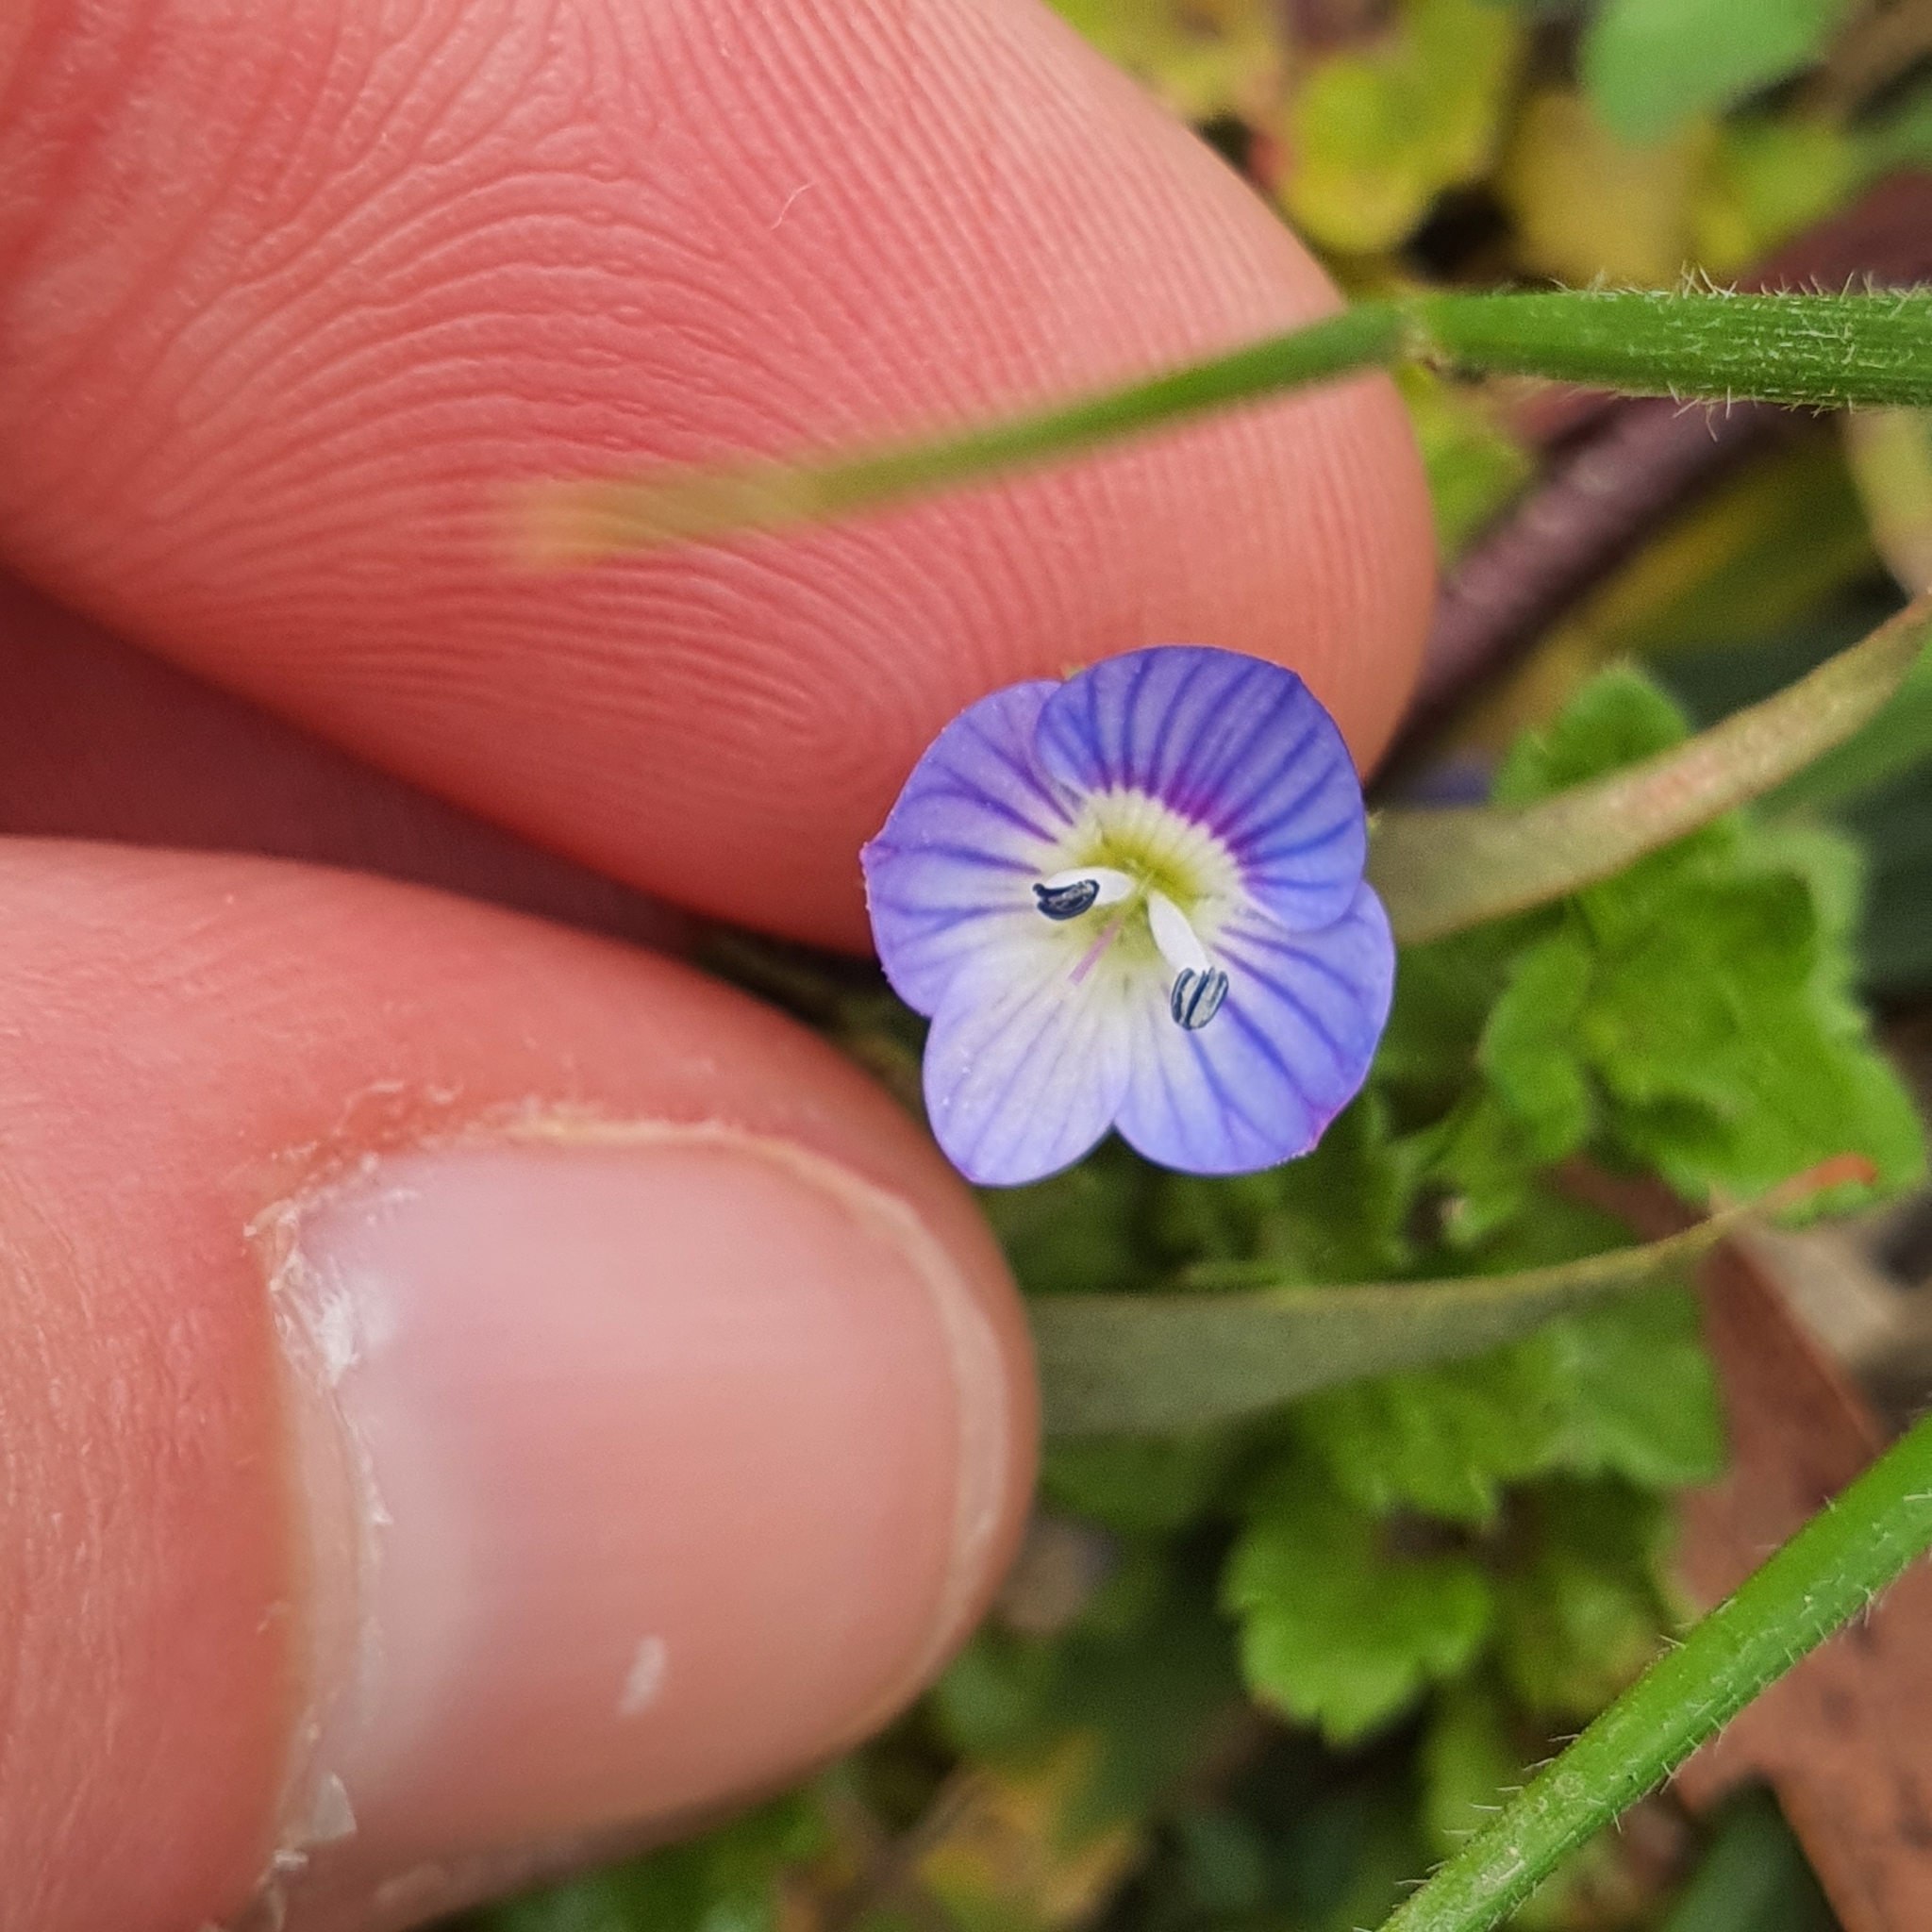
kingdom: Plantae
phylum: Tracheophyta
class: Magnoliopsida
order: Lamiales
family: Plantaginaceae
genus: Veronica
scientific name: Veronica persica
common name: Common field-speedwell
